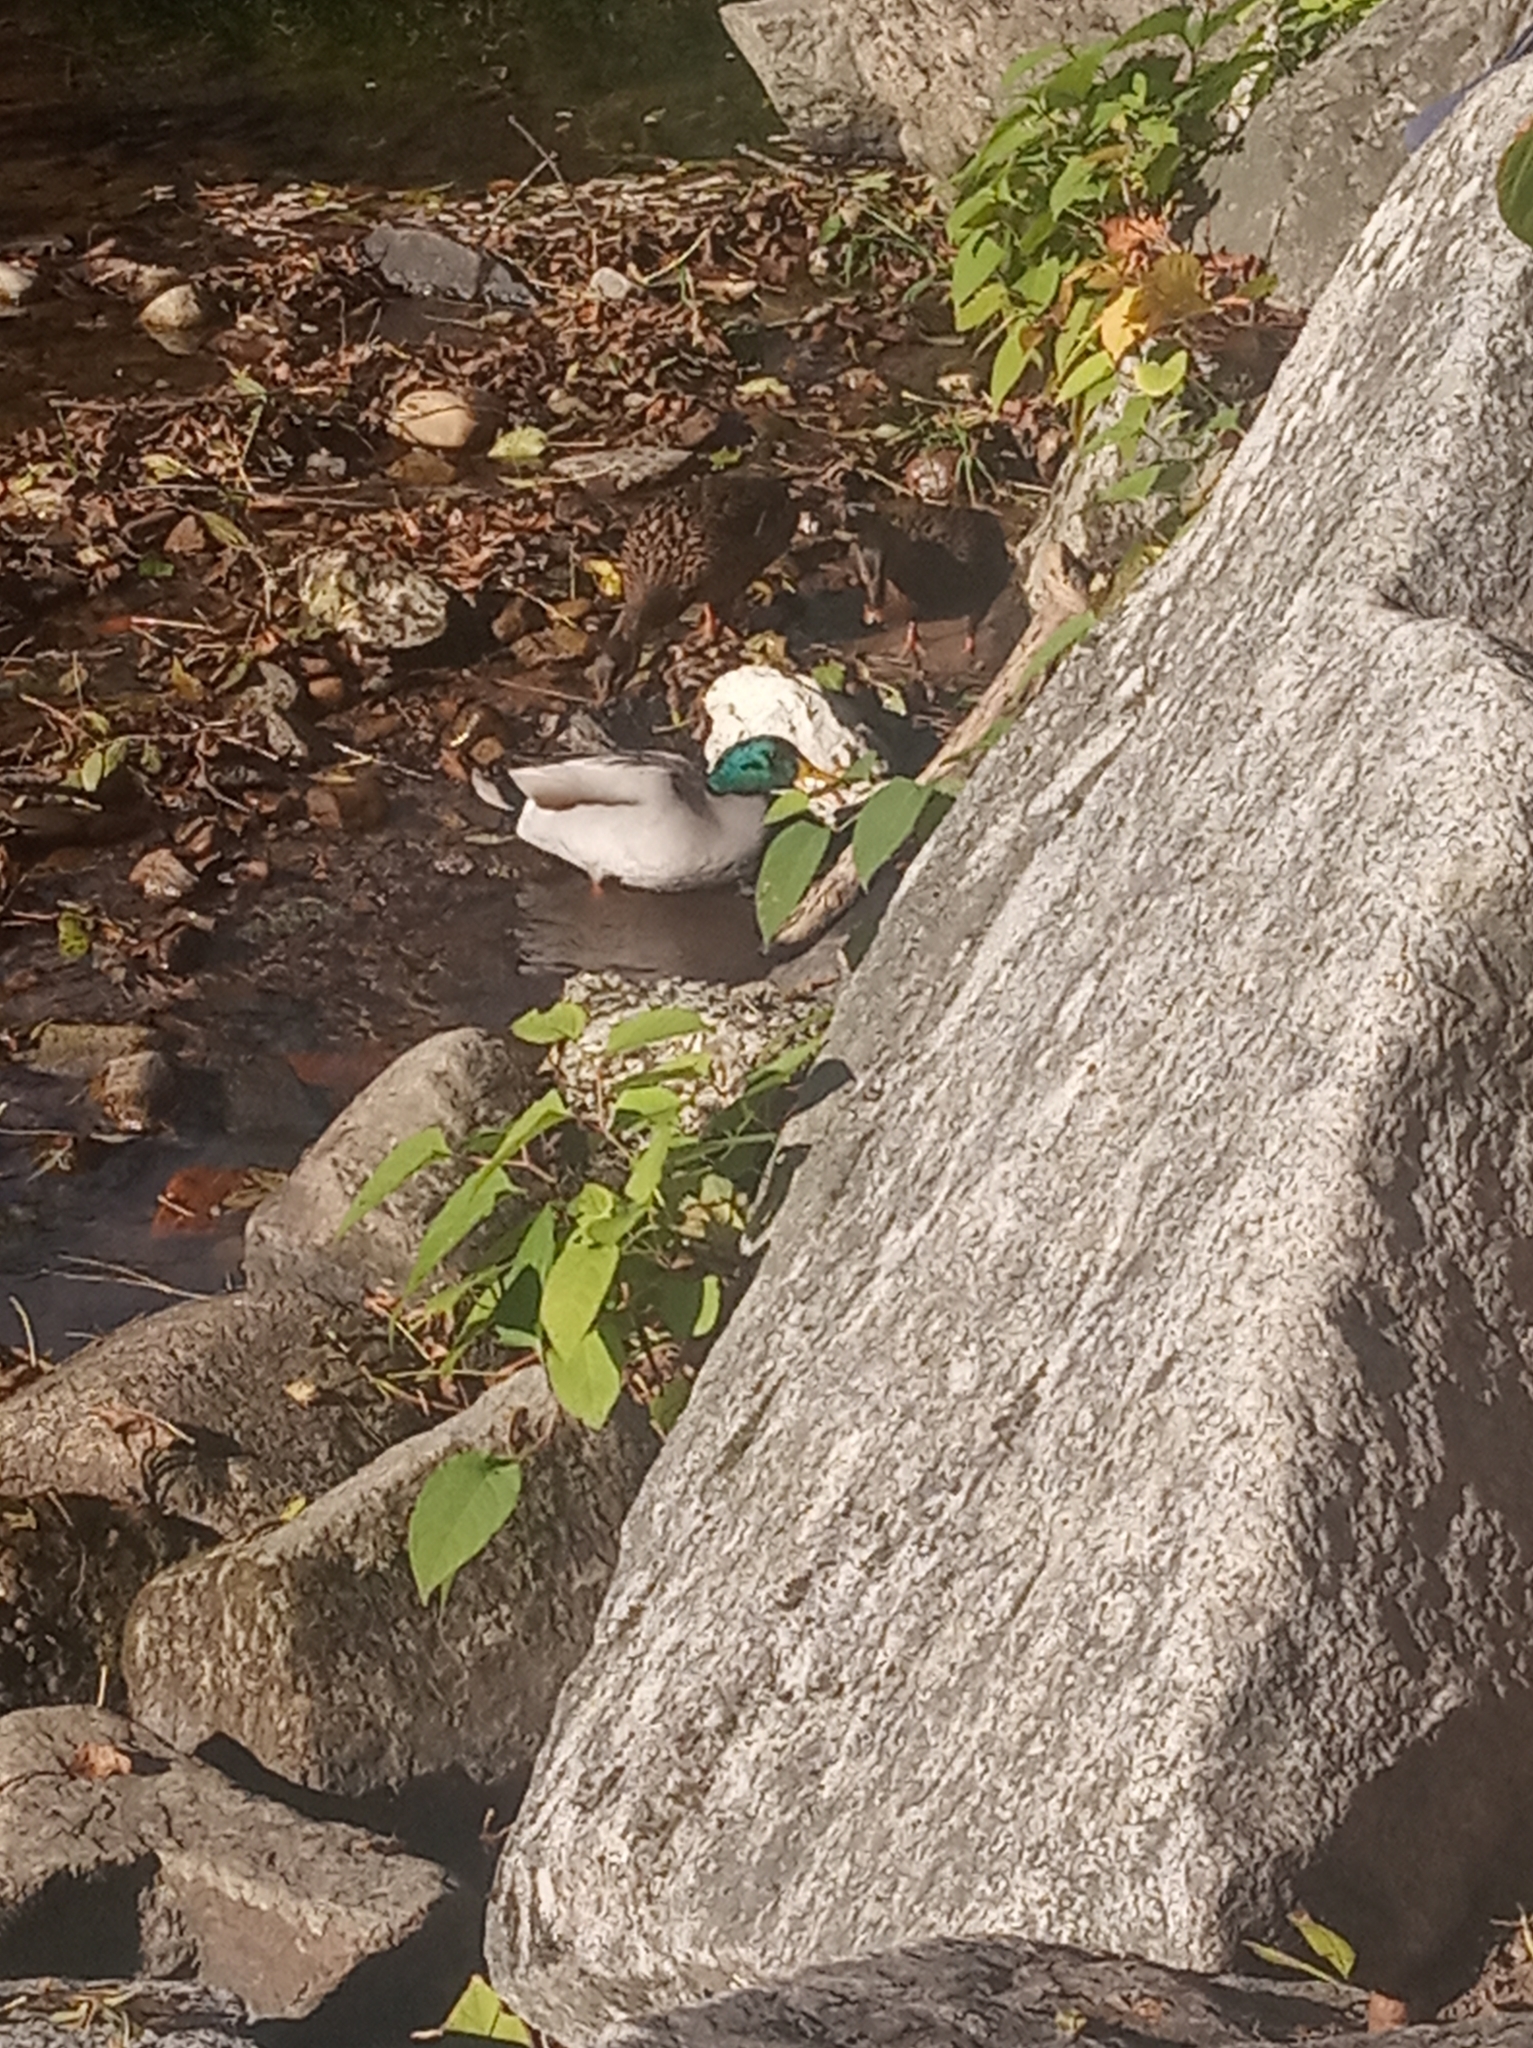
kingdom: Animalia
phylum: Chordata
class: Aves
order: Anseriformes
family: Anatidae
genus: Anas
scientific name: Anas platyrhynchos
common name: Mallard
